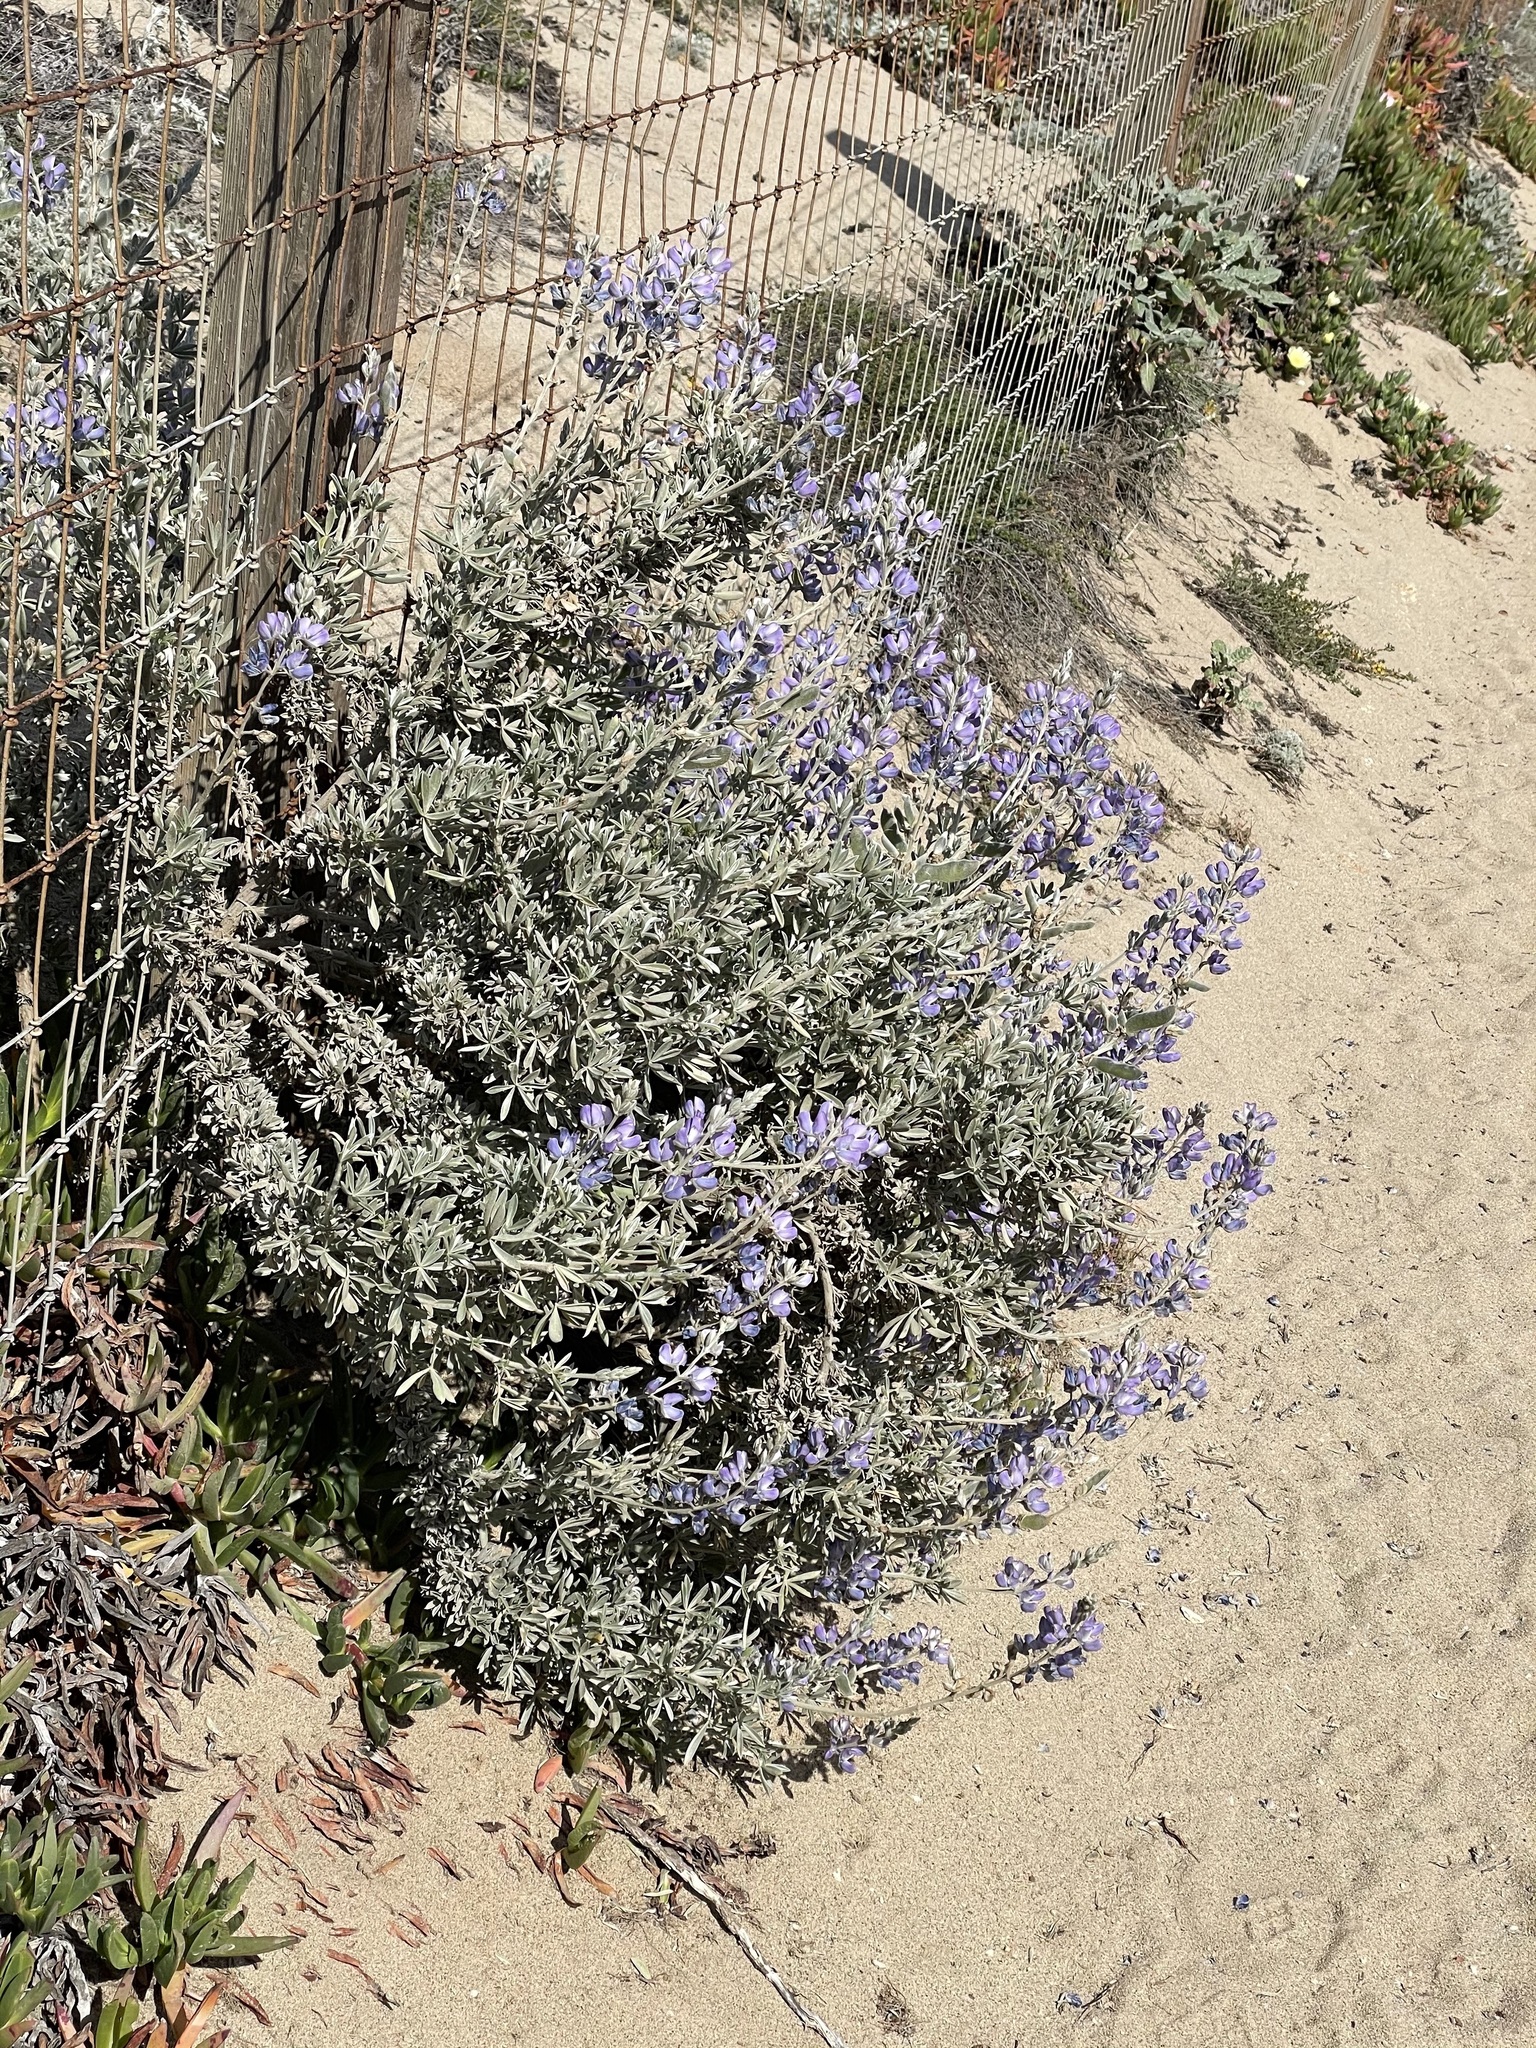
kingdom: Plantae
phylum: Tracheophyta
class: Magnoliopsida
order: Fabales
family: Fabaceae
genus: Lupinus
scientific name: Lupinus chamissonis
